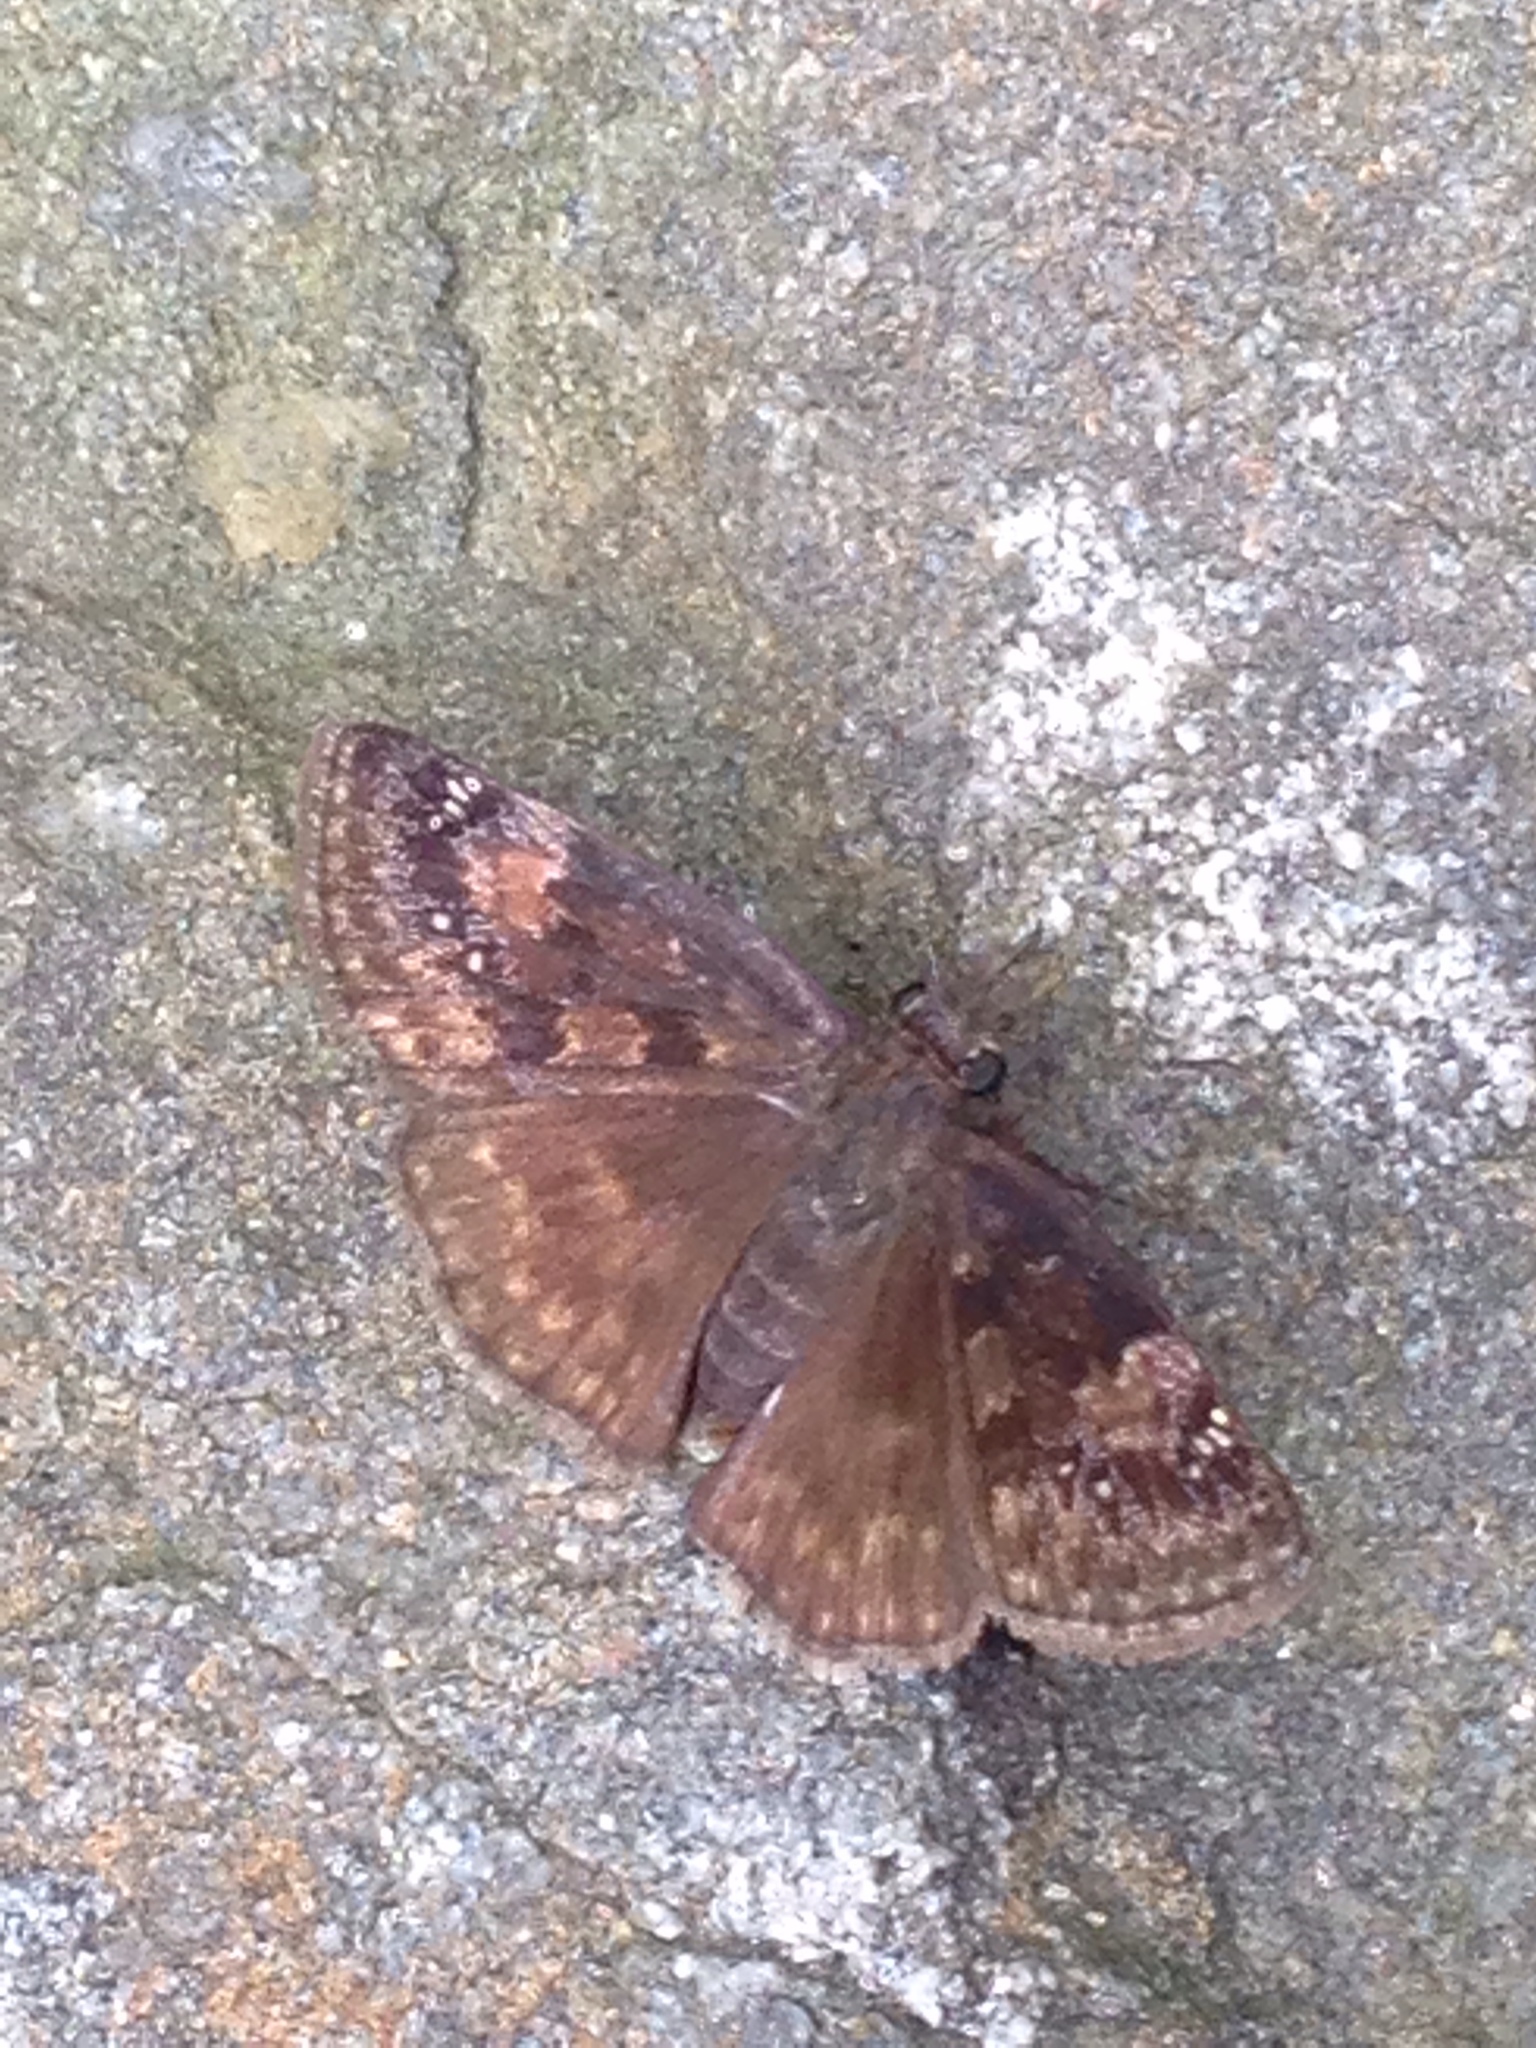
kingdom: Animalia
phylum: Arthropoda
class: Insecta
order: Lepidoptera
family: Hesperiidae
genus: Erynnis
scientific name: Erynnis baptisiae
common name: Wild indigo duskywing
